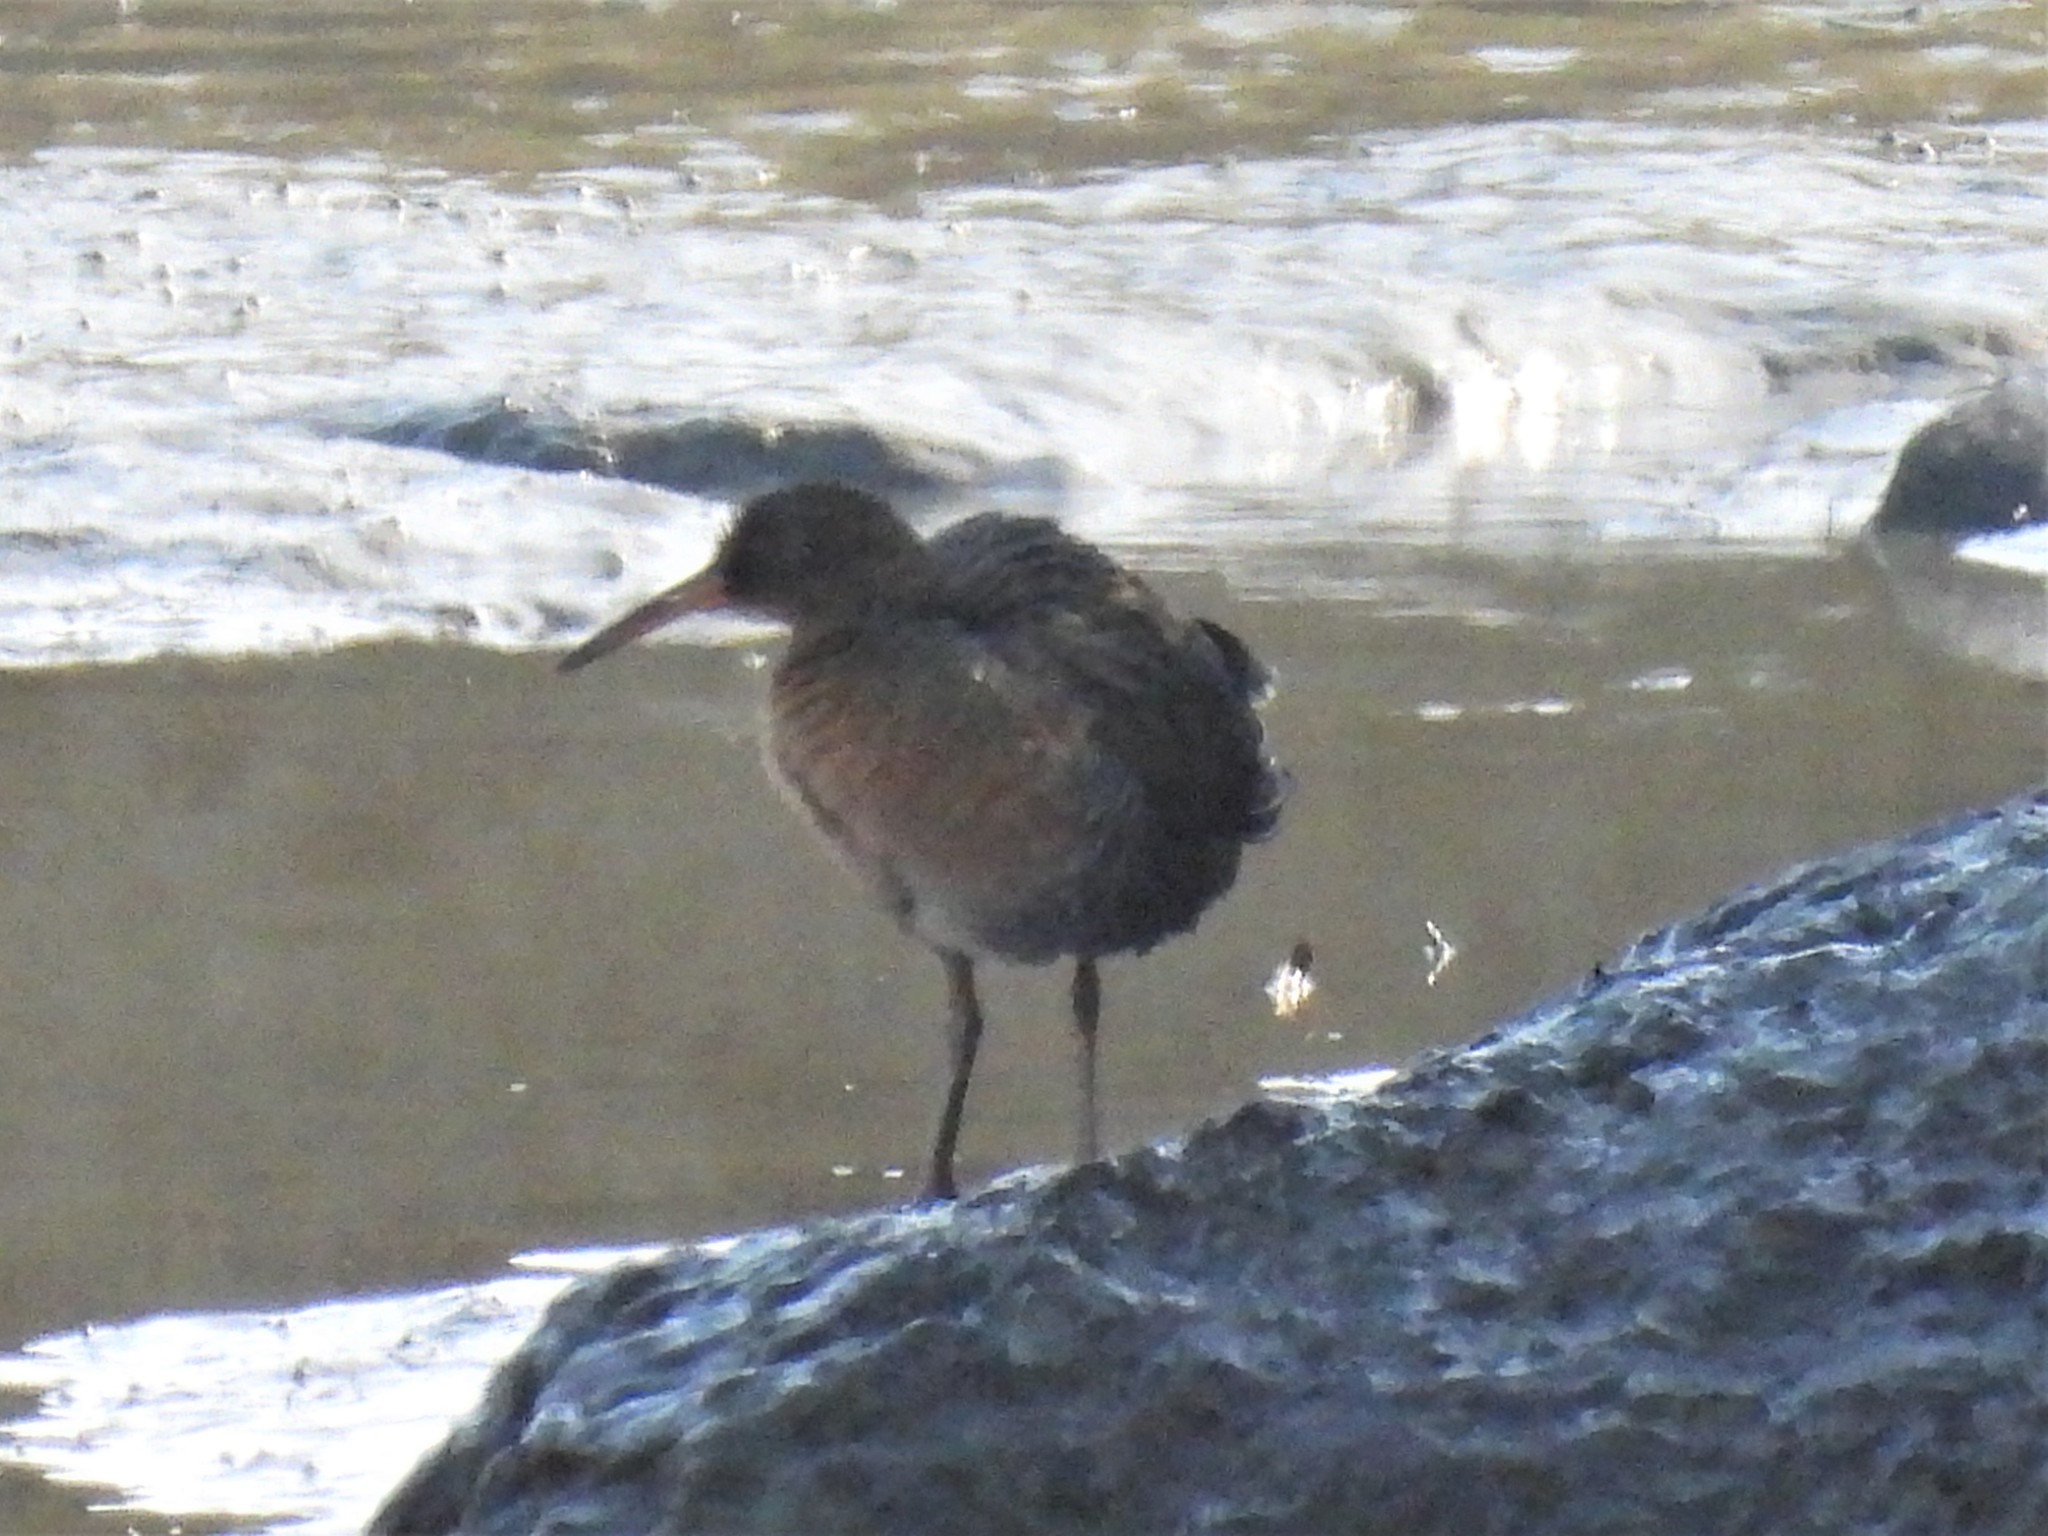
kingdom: Animalia
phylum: Chordata
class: Aves
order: Gruiformes
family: Rallidae
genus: Rallus
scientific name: Rallus obsoletus
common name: Ridgway's rail
